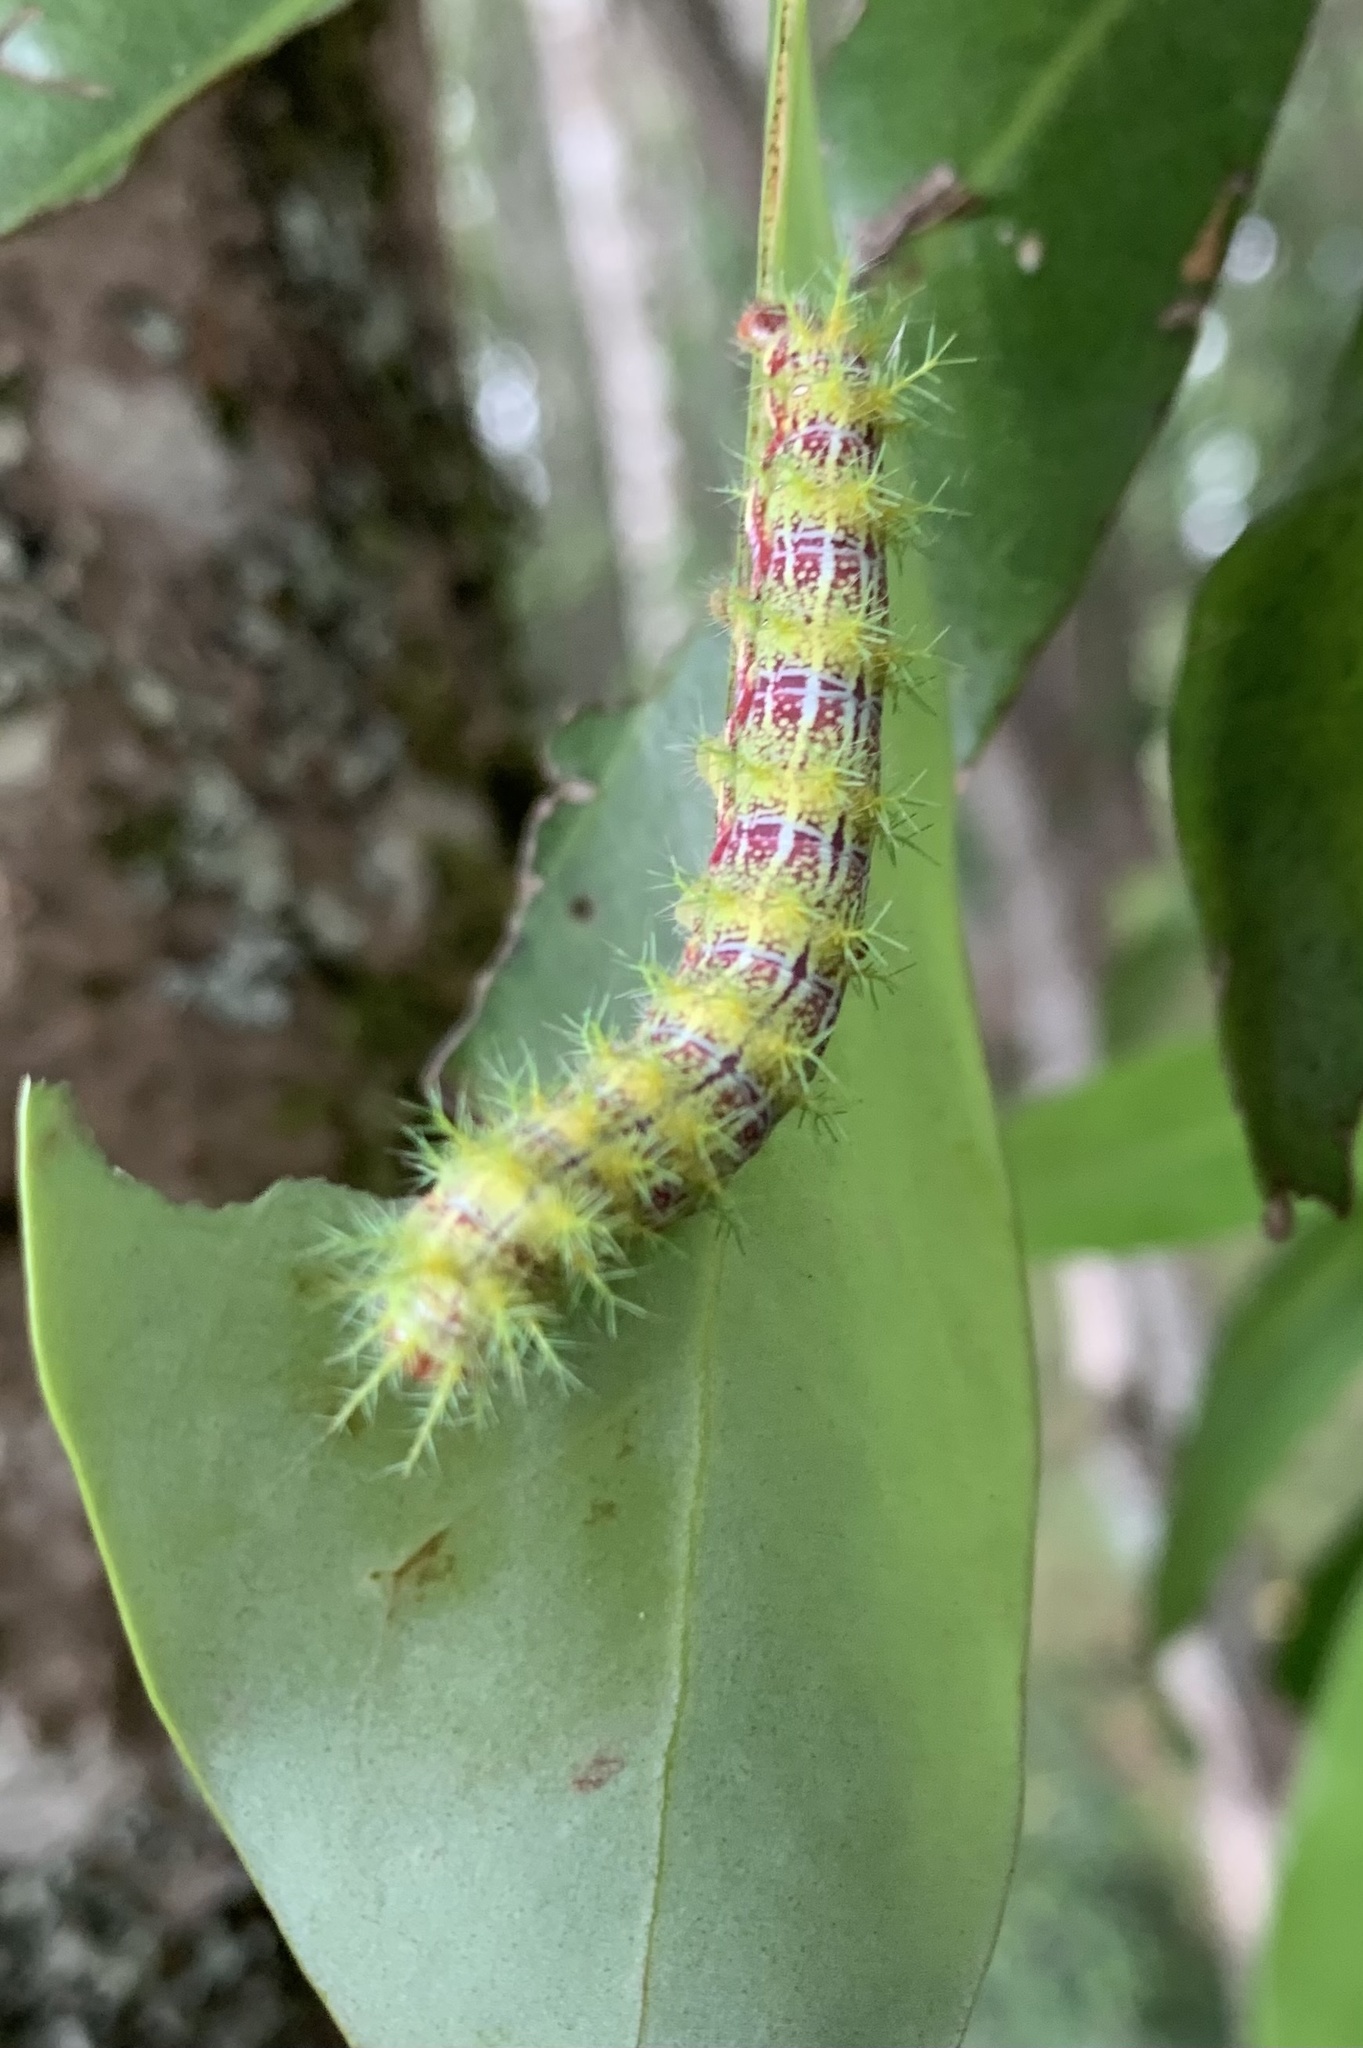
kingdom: Animalia
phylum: Arthropoda
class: Insecta
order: Lepidoptera
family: Saturniidae
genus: Ormiscodes
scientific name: Ormiscodes amphinome
